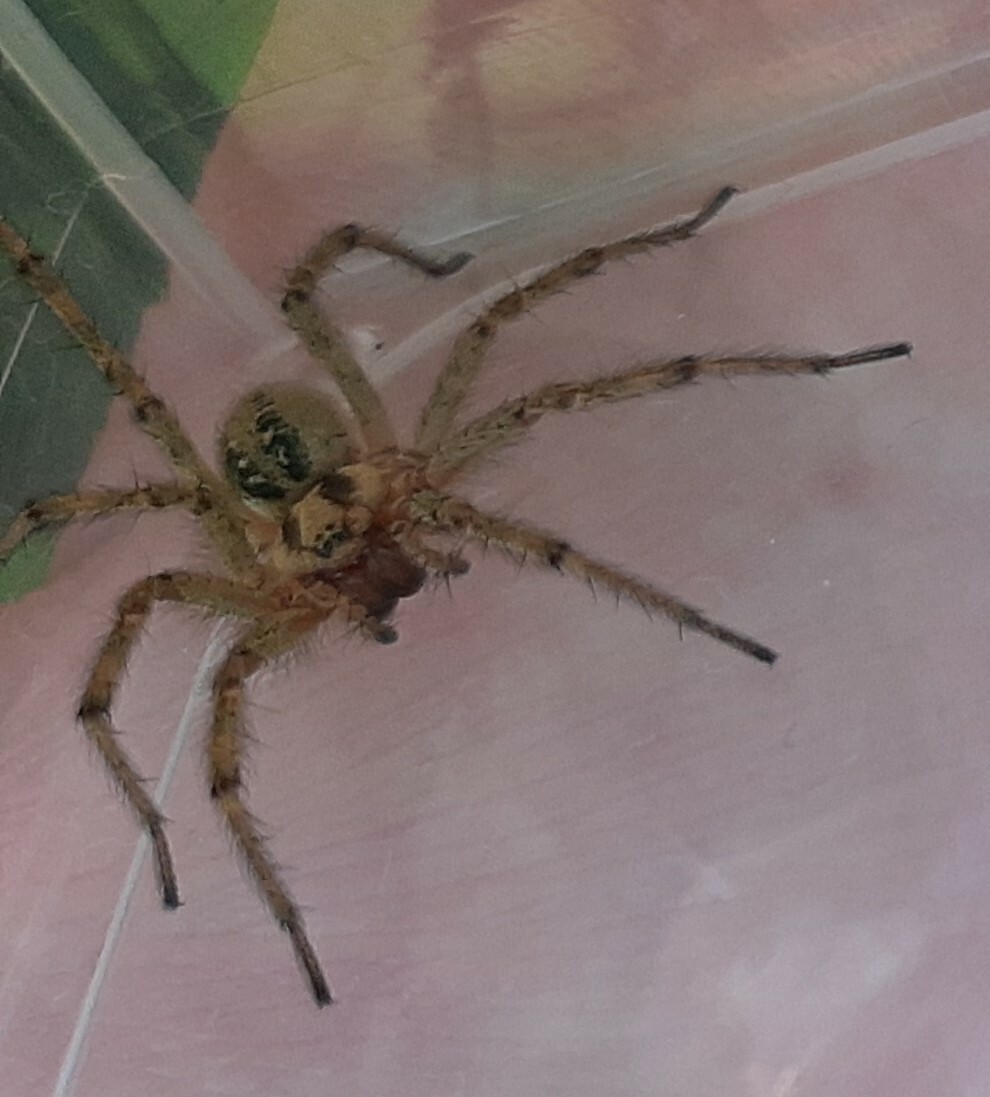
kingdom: Animalia
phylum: Arthropoda
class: Arachnida
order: Araneae
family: Agelenidae
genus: Agelena
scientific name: Agelena labyrinthica
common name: Labyrinth spider
